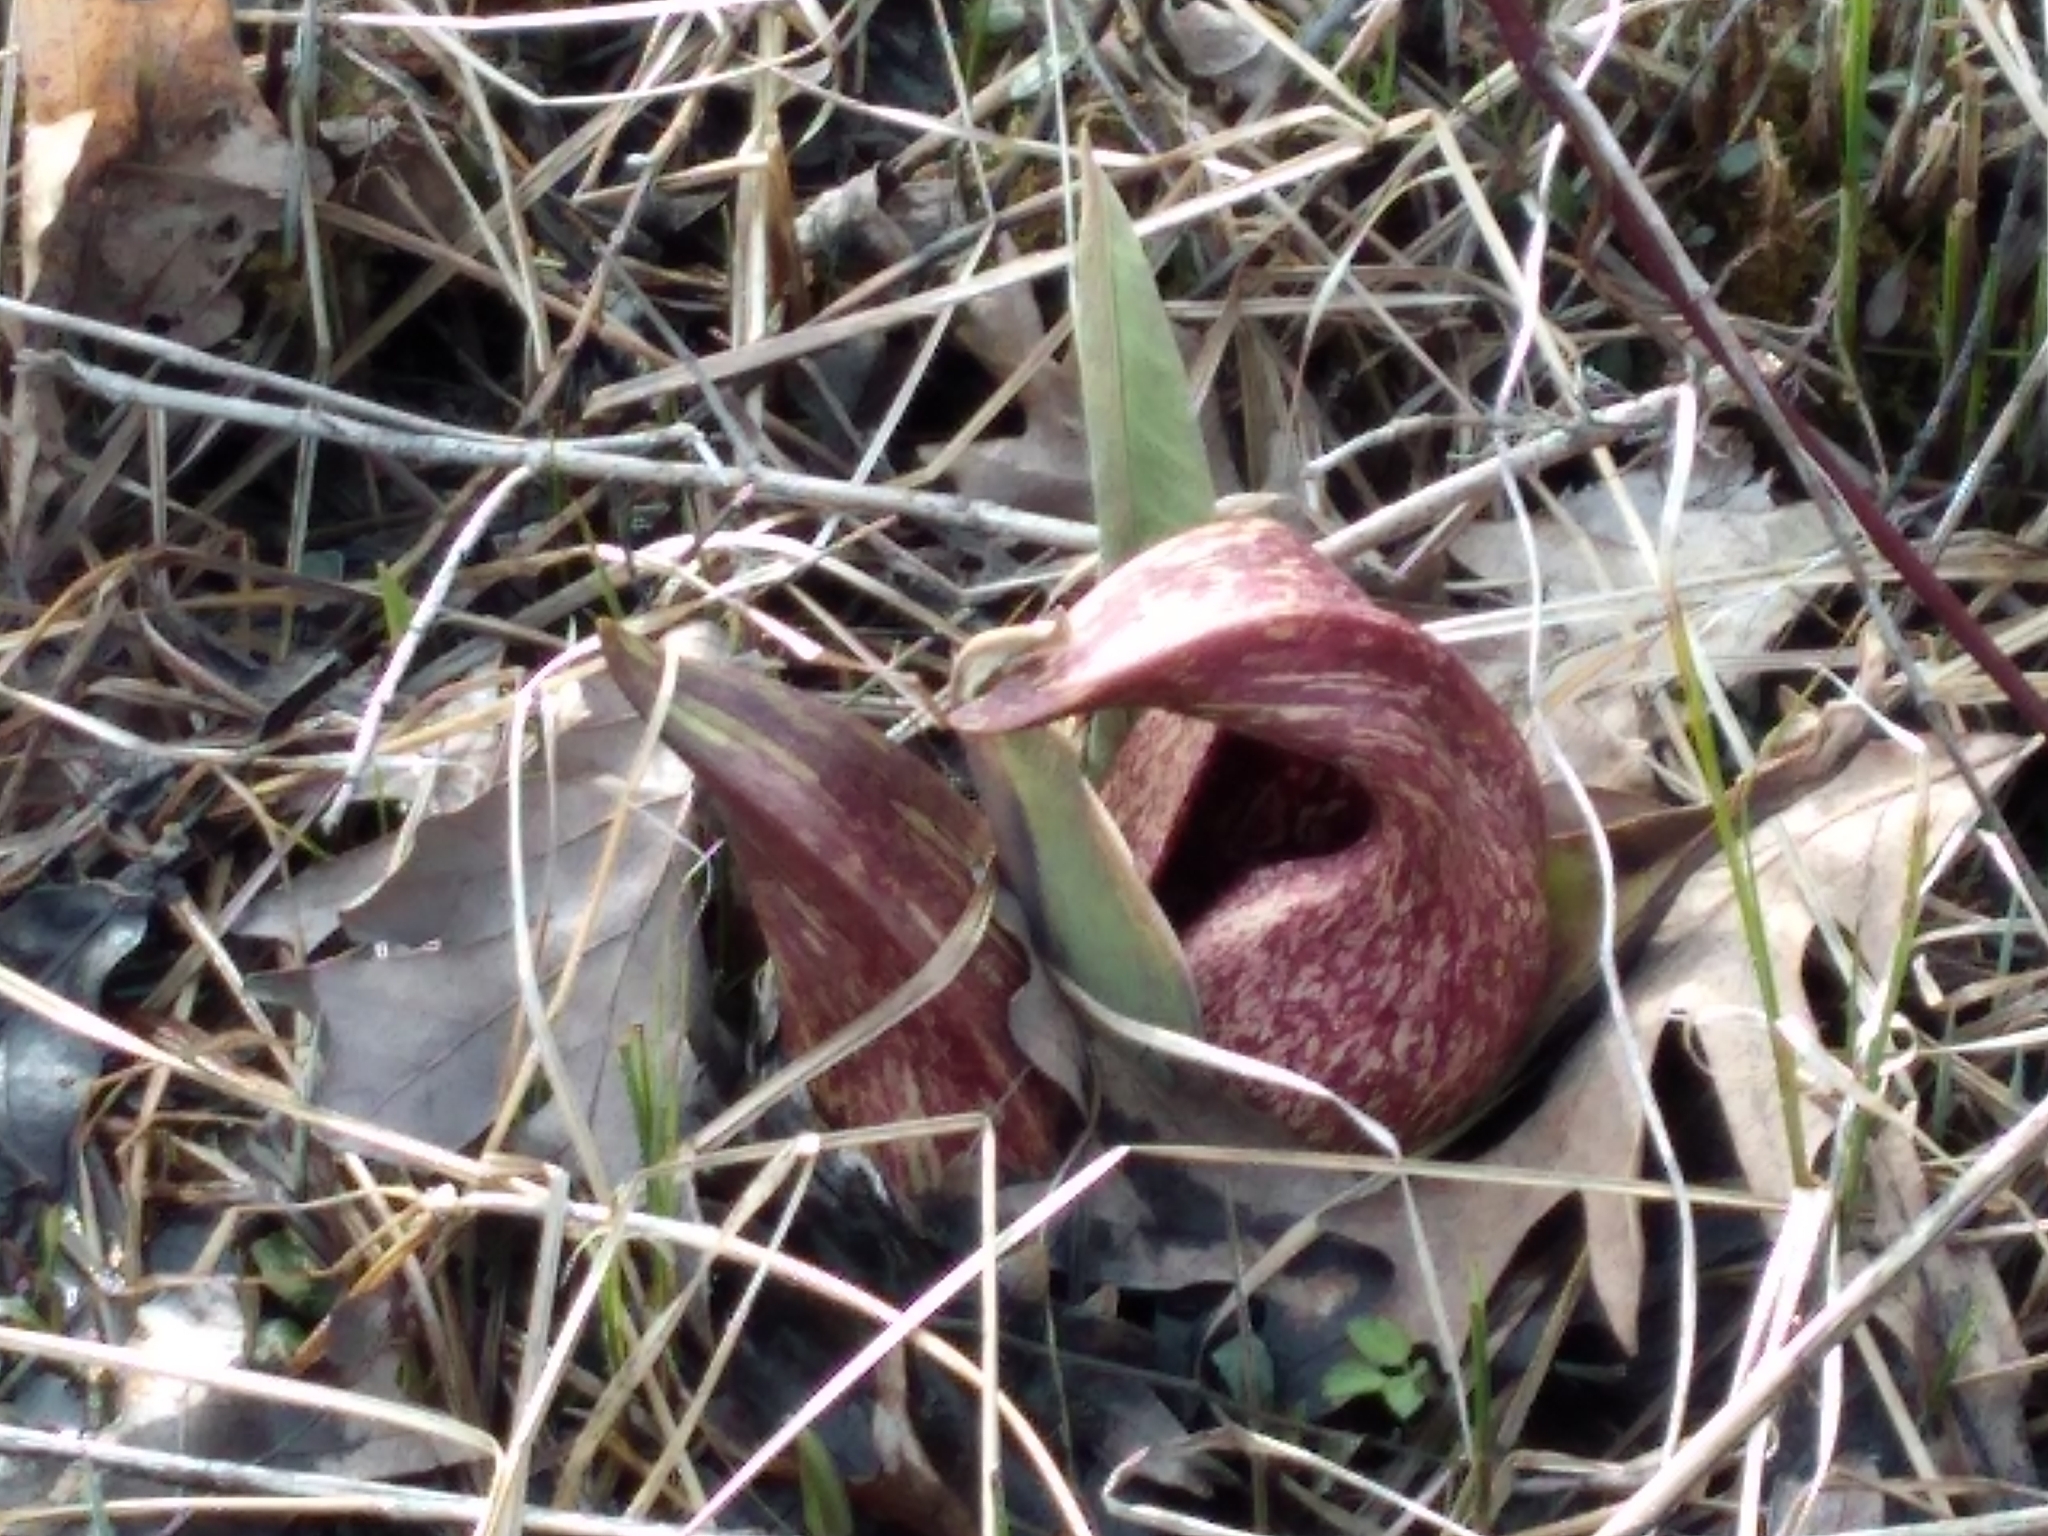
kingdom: Plantae
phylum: Tracheophyta
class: Liliopsida
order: Alismatales
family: Araceae
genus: Symplocarpus
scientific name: Symplocarpus foetidus
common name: Eastern skunk cabbage
